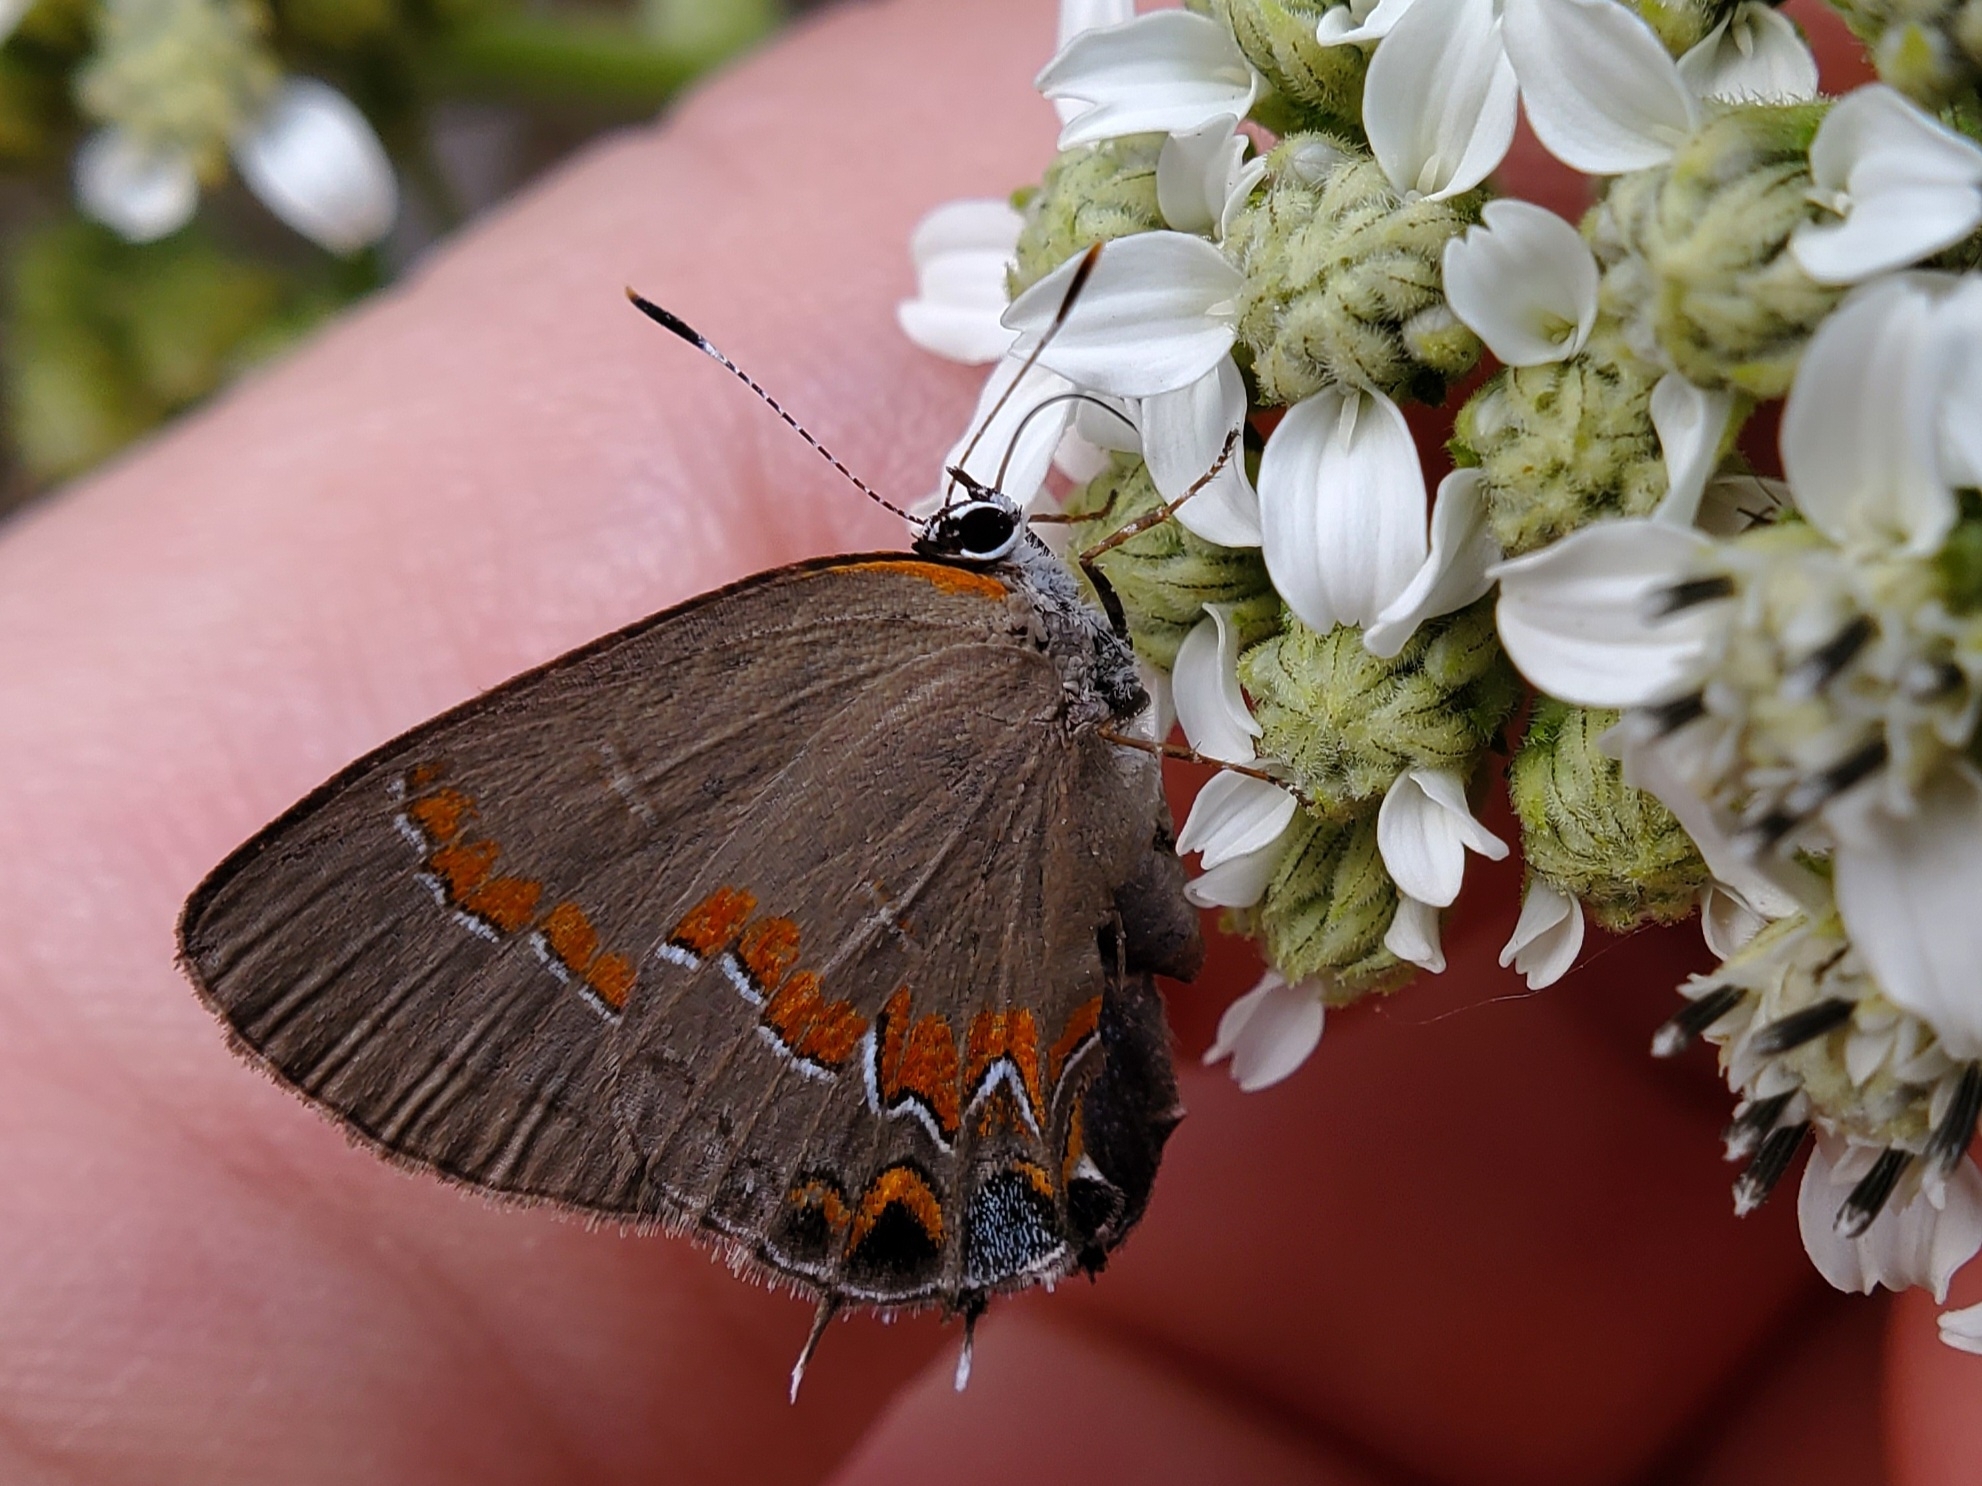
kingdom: Animalia
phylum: Arthropoda
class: Insecta
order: Lepidoptera
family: Lycaenidae
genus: Calycopis
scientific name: Calycopis cecrops
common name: Red-banded hairstreak
